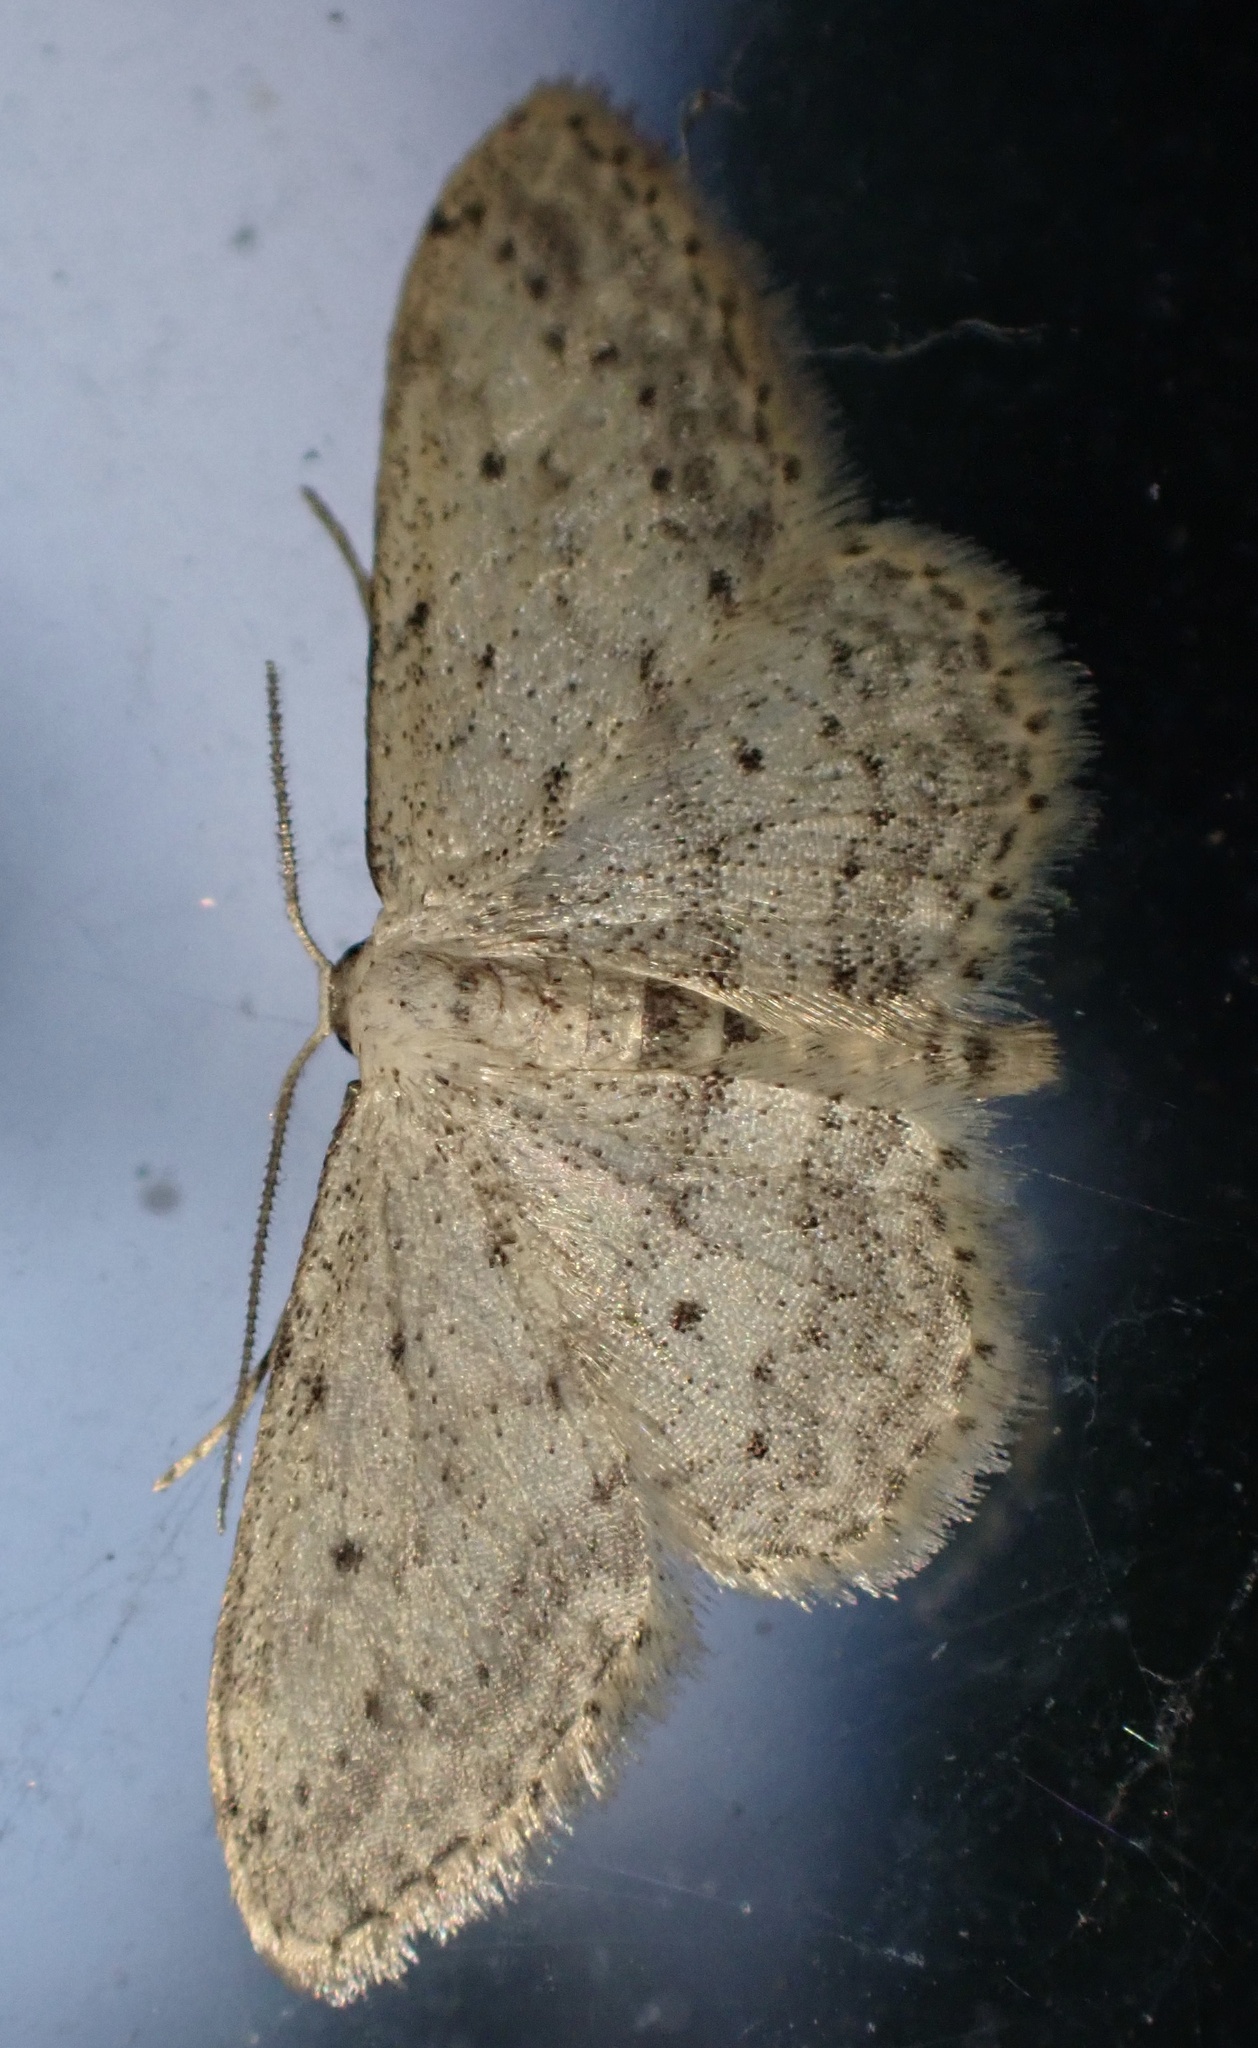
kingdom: Animalia
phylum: Arthropoda
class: Insecta
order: Lepidoptera
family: Geometridae
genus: Idaea
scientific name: Idaea seriata
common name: Small dusty wave
